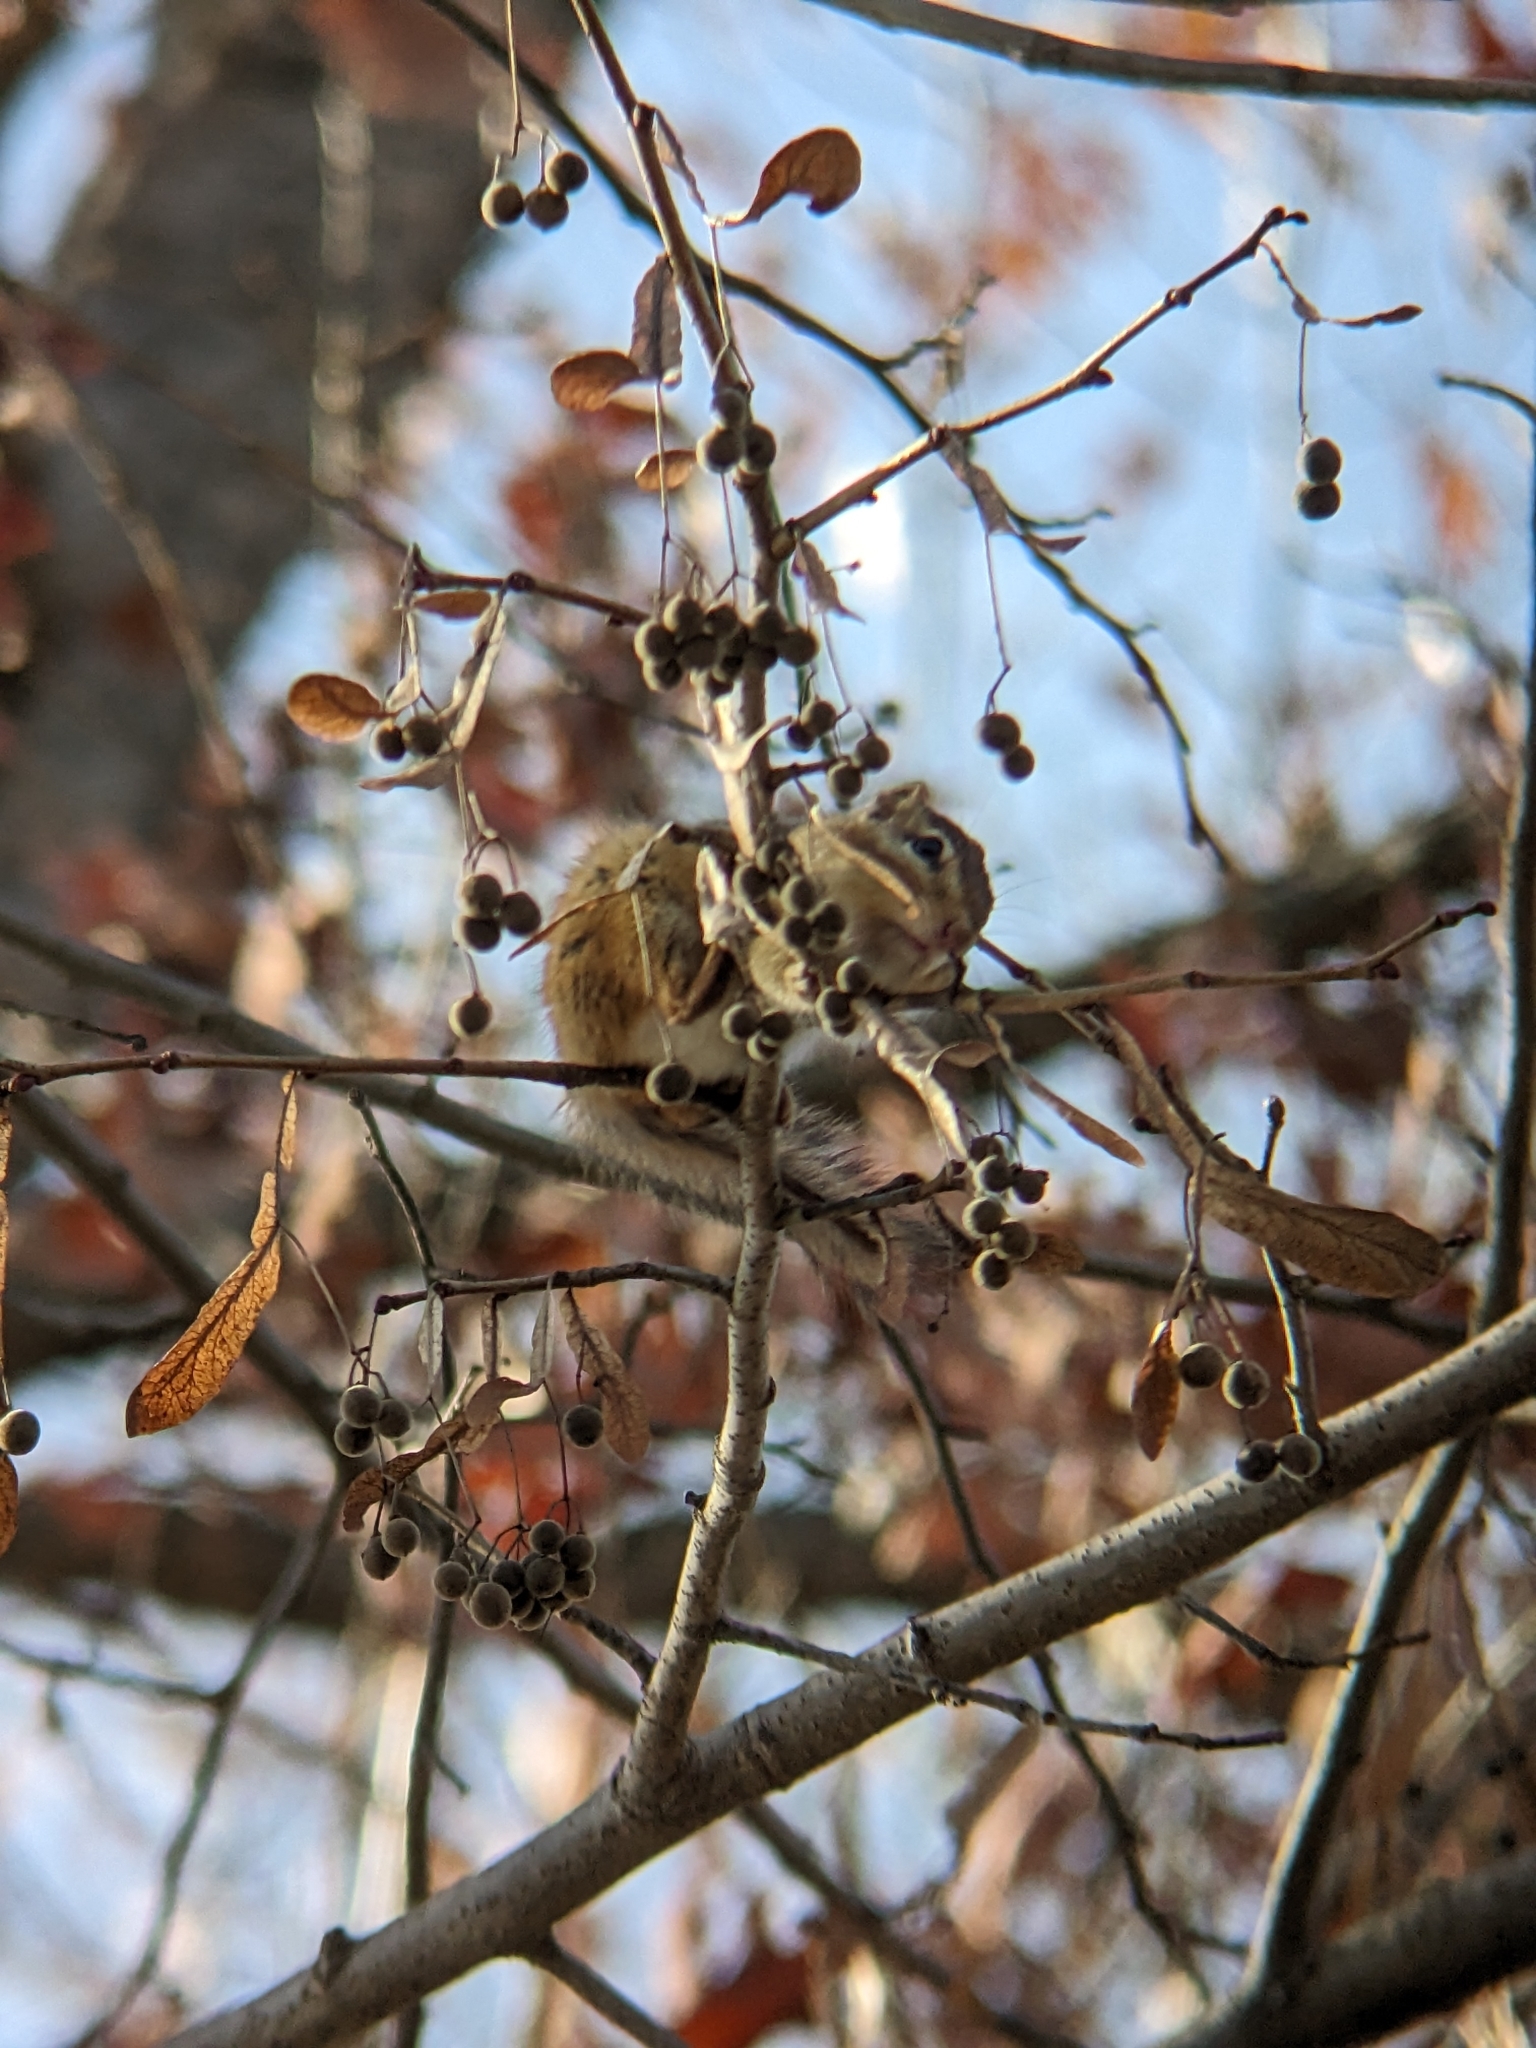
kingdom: Animalia
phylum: Chordata
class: Mammalia
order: Rodentia
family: Sciuridae
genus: Tamias
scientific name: Tamias striatus
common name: Eastern chipmunk
